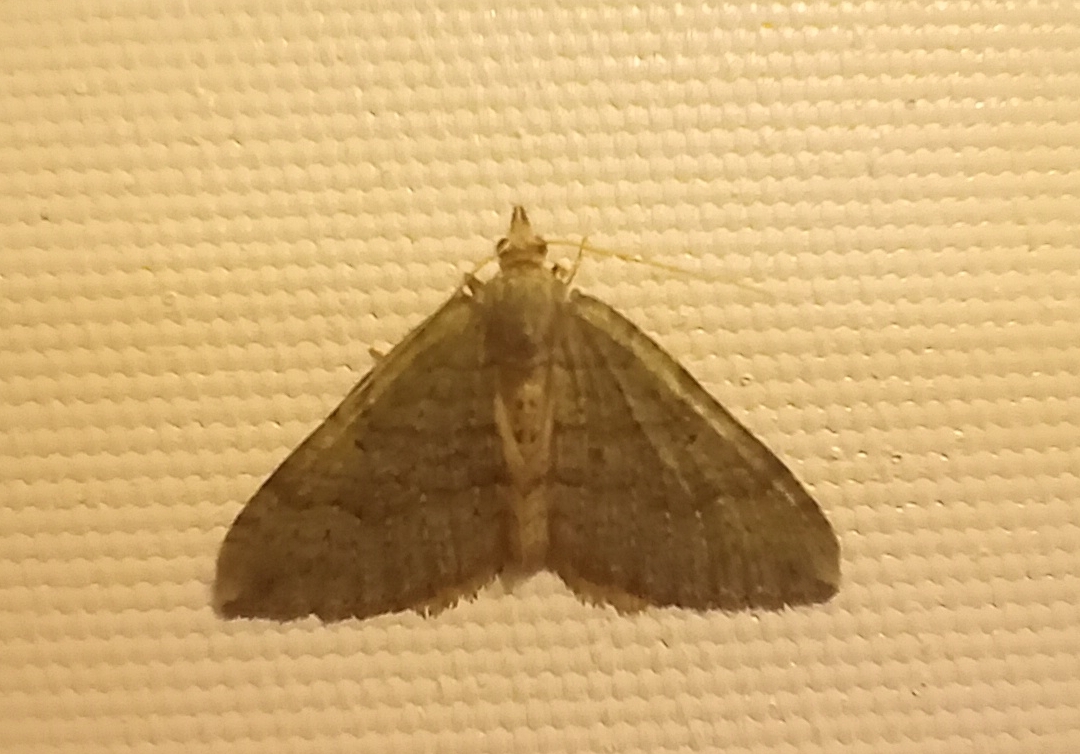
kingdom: Animalia
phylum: Arthropoda
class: Insecta
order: Lepidoptera
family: Geometridae
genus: Epyaxa
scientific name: Epyaxa rosearia
